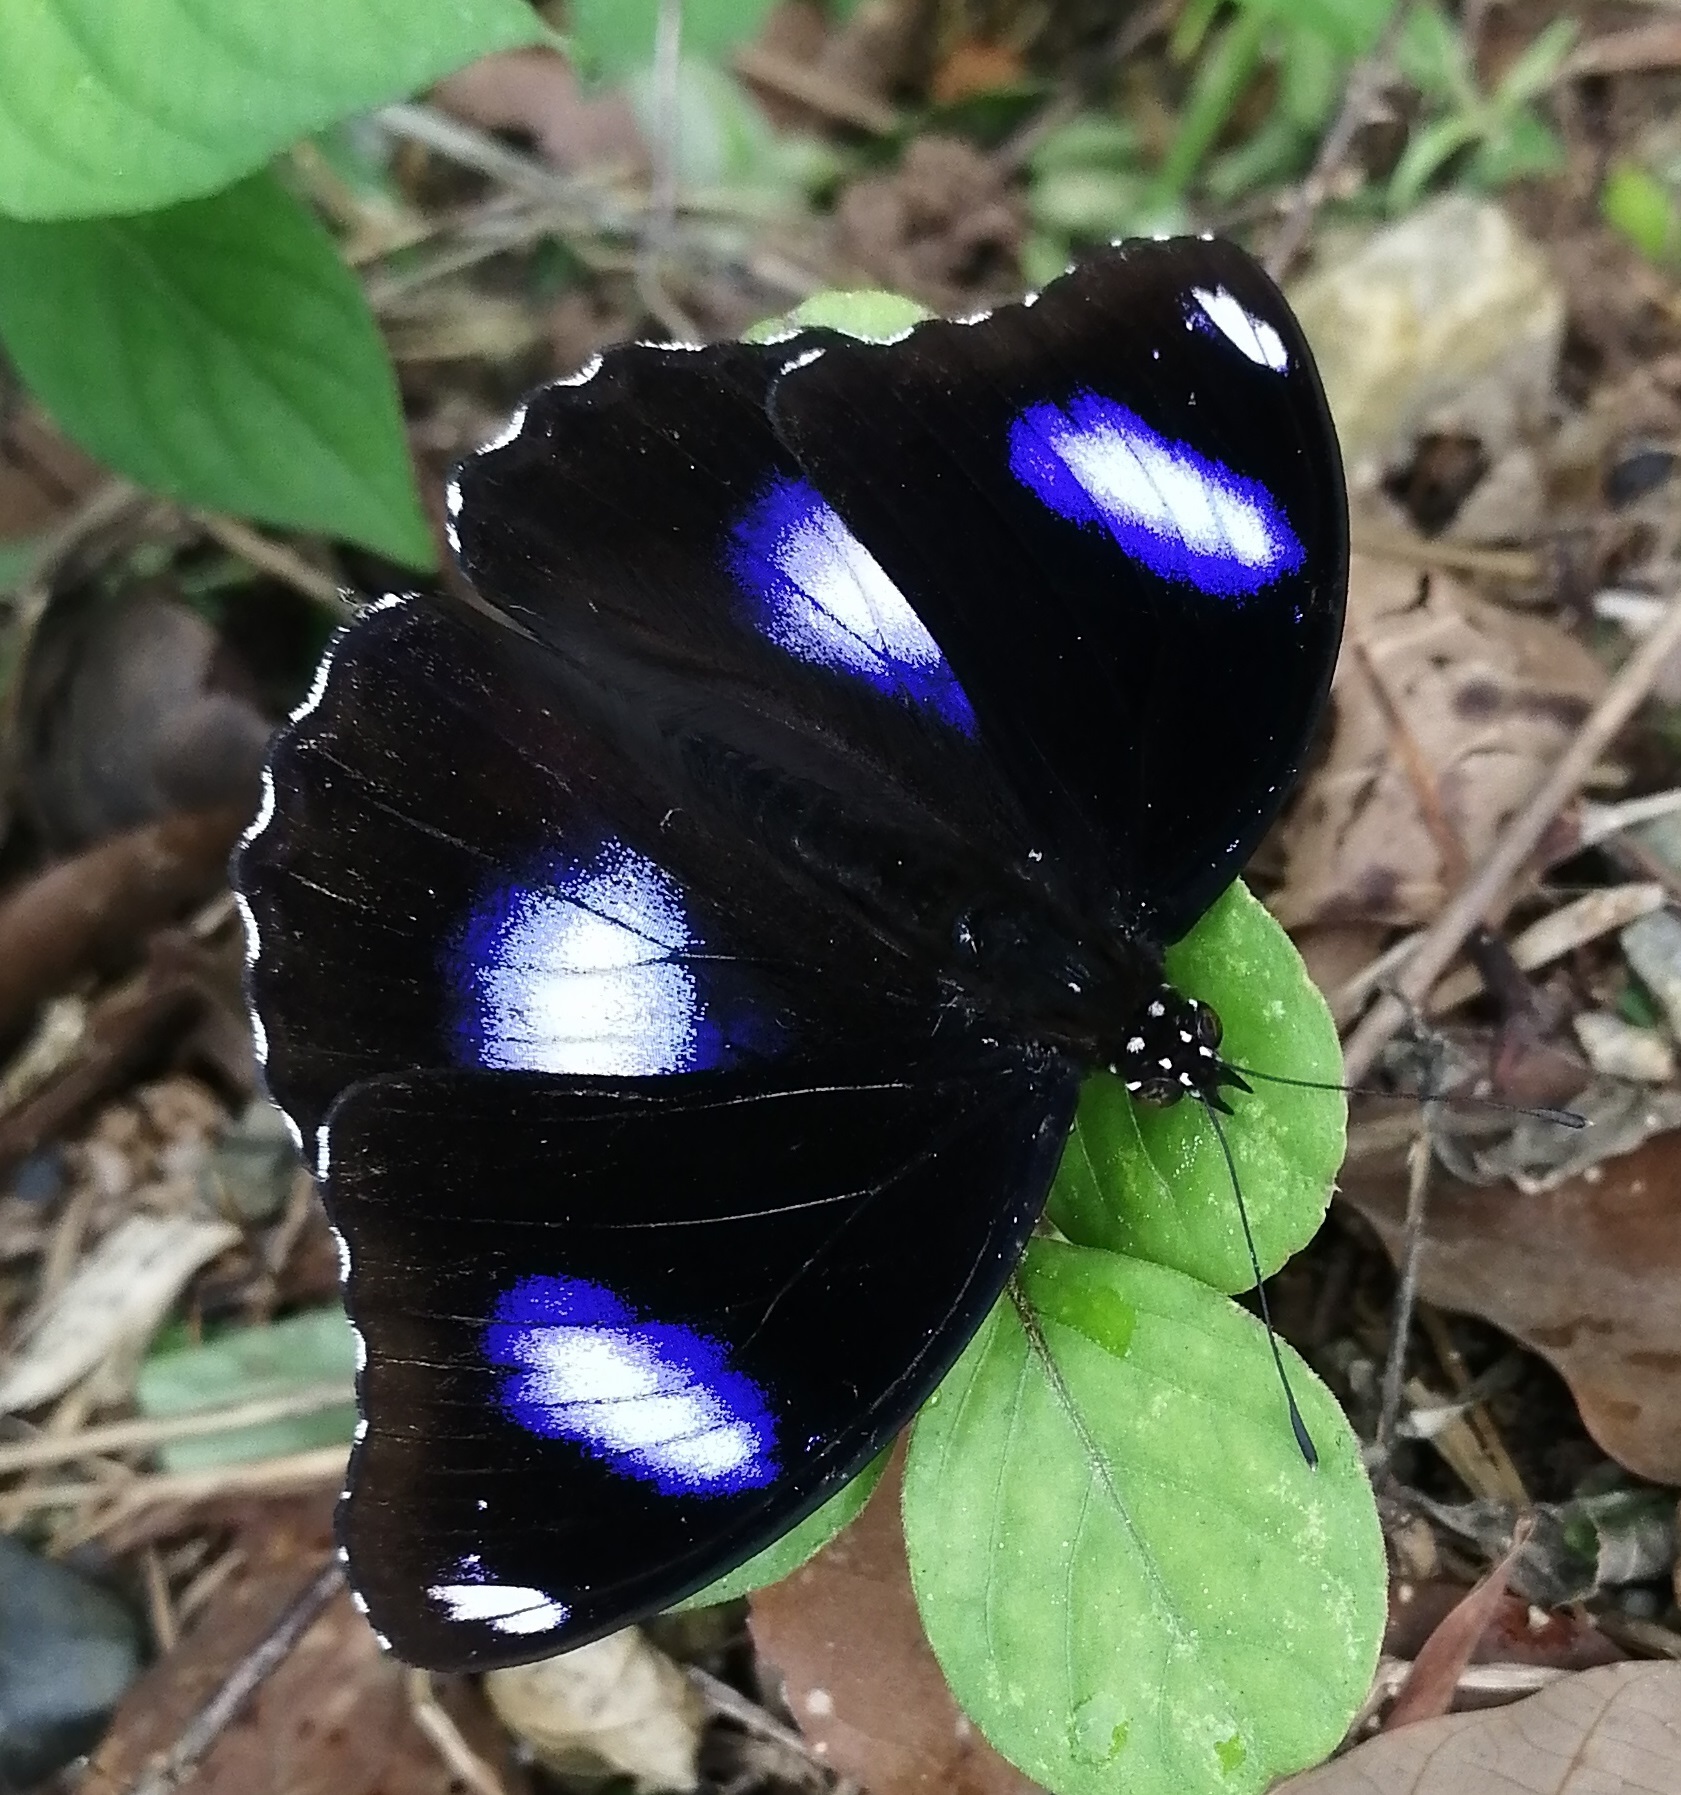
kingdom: Animalia
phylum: Arthropoda
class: Insecta
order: Lepidoptera
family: Nymphalidae
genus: Hypolimnas
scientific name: Hypolimnas bolina
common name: Great eggfly
